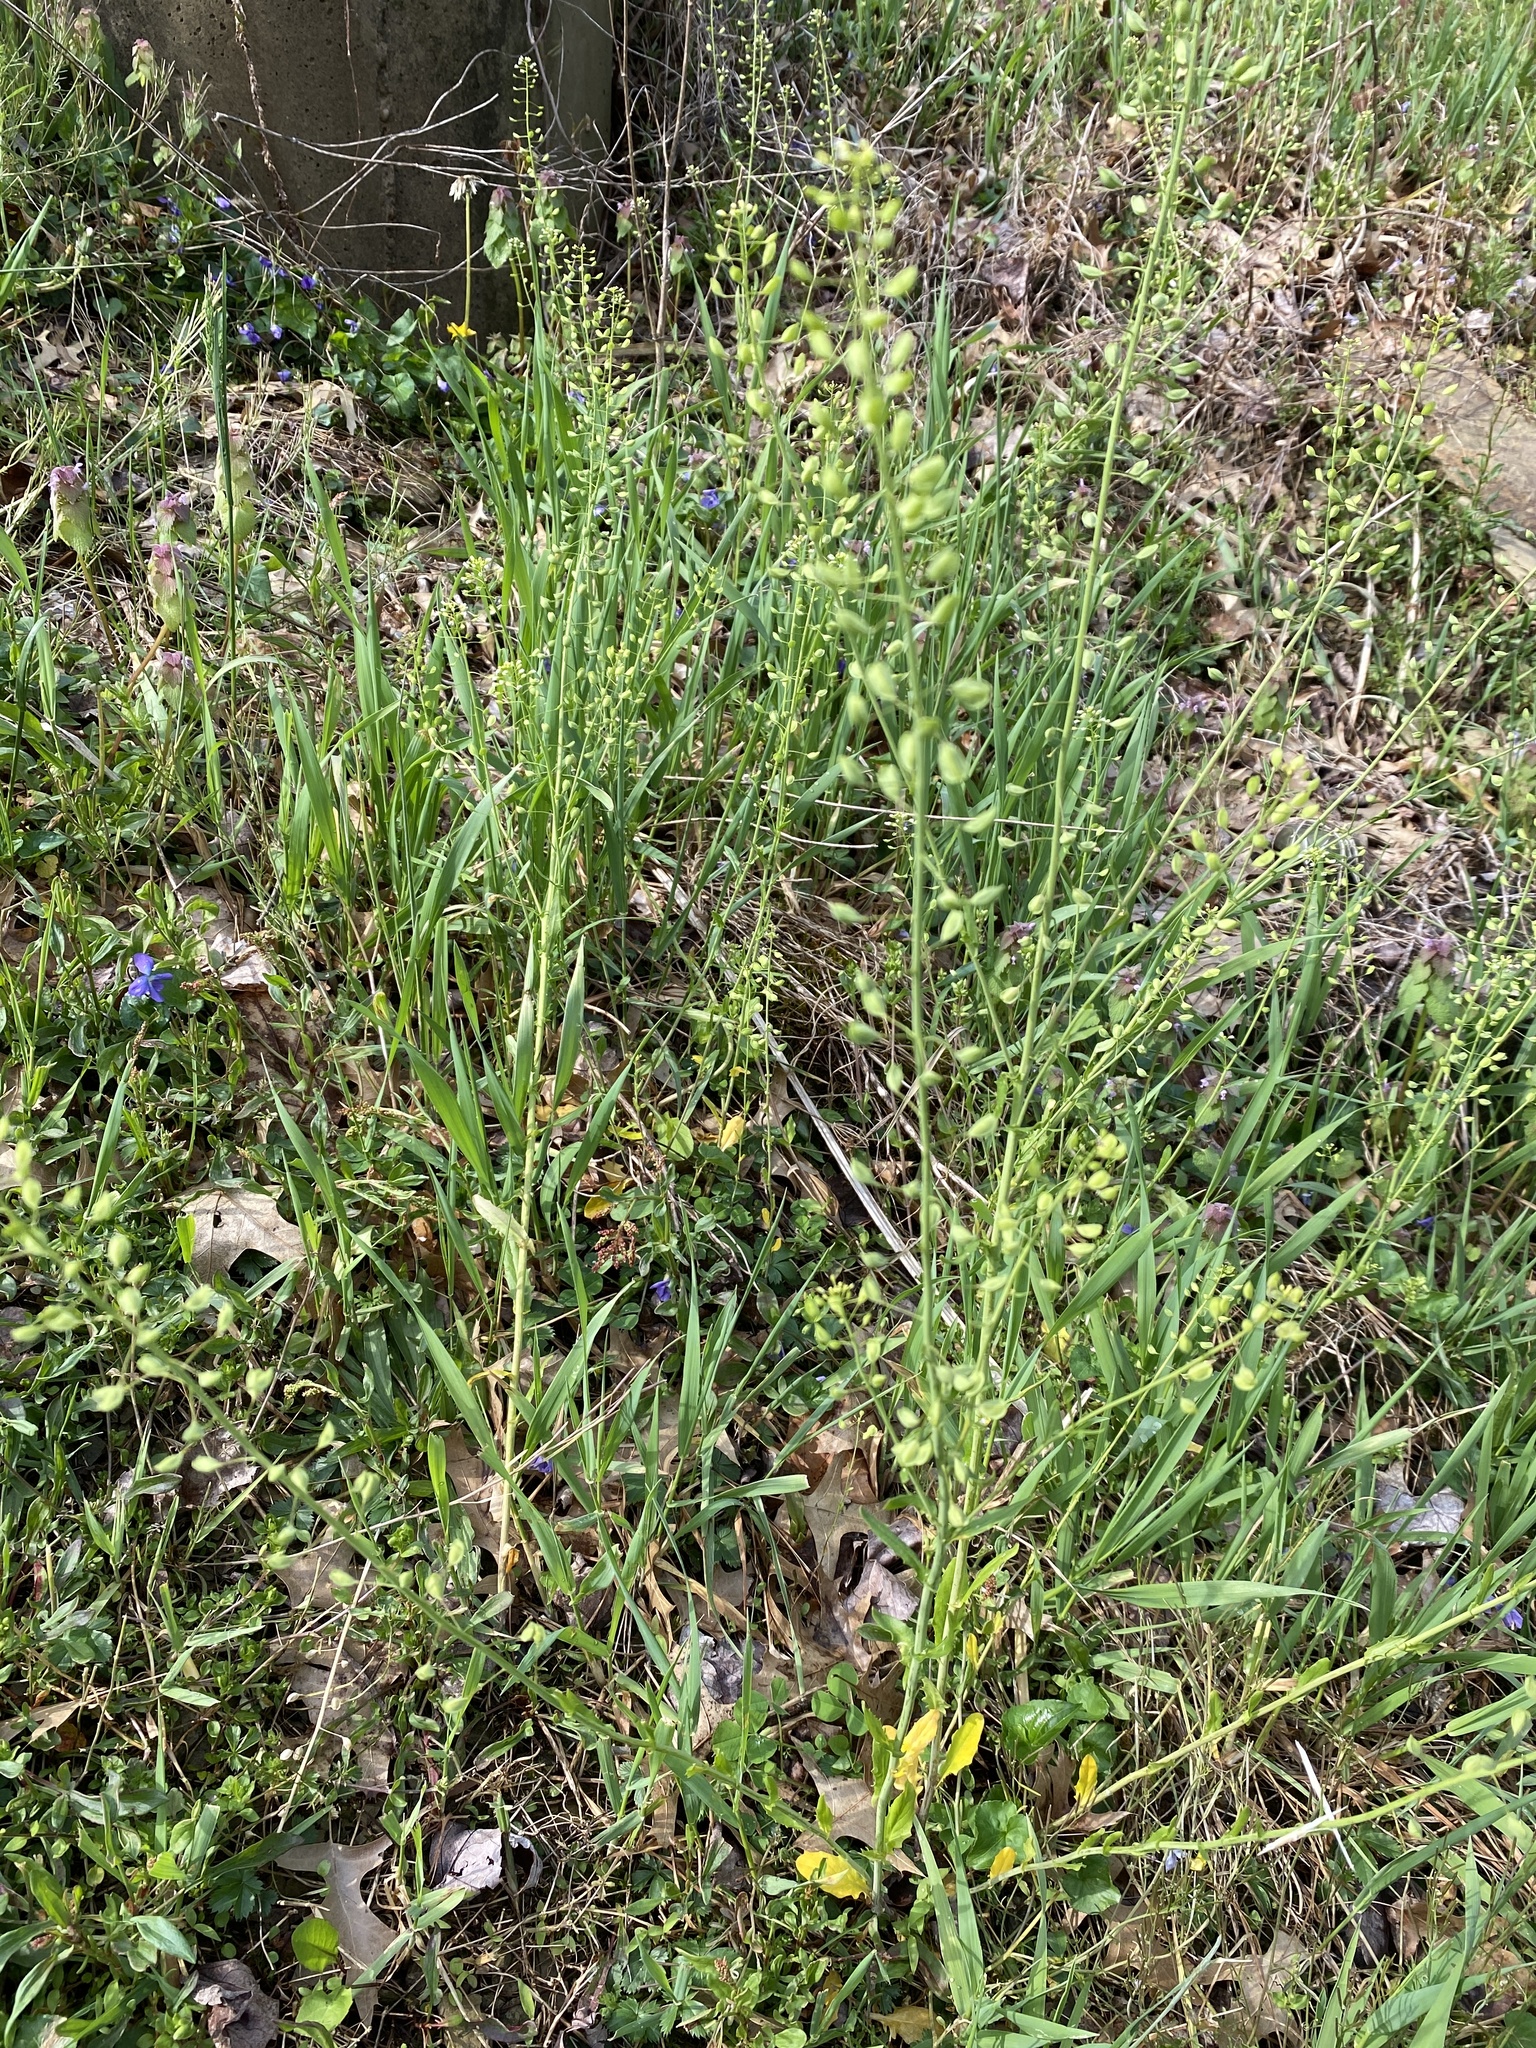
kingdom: Plantae
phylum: Tracheophyta
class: Magnoliopsida
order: Brassicales
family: Brassicaceae
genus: Mummenhoffia
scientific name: Mummenhoffia alliacea
